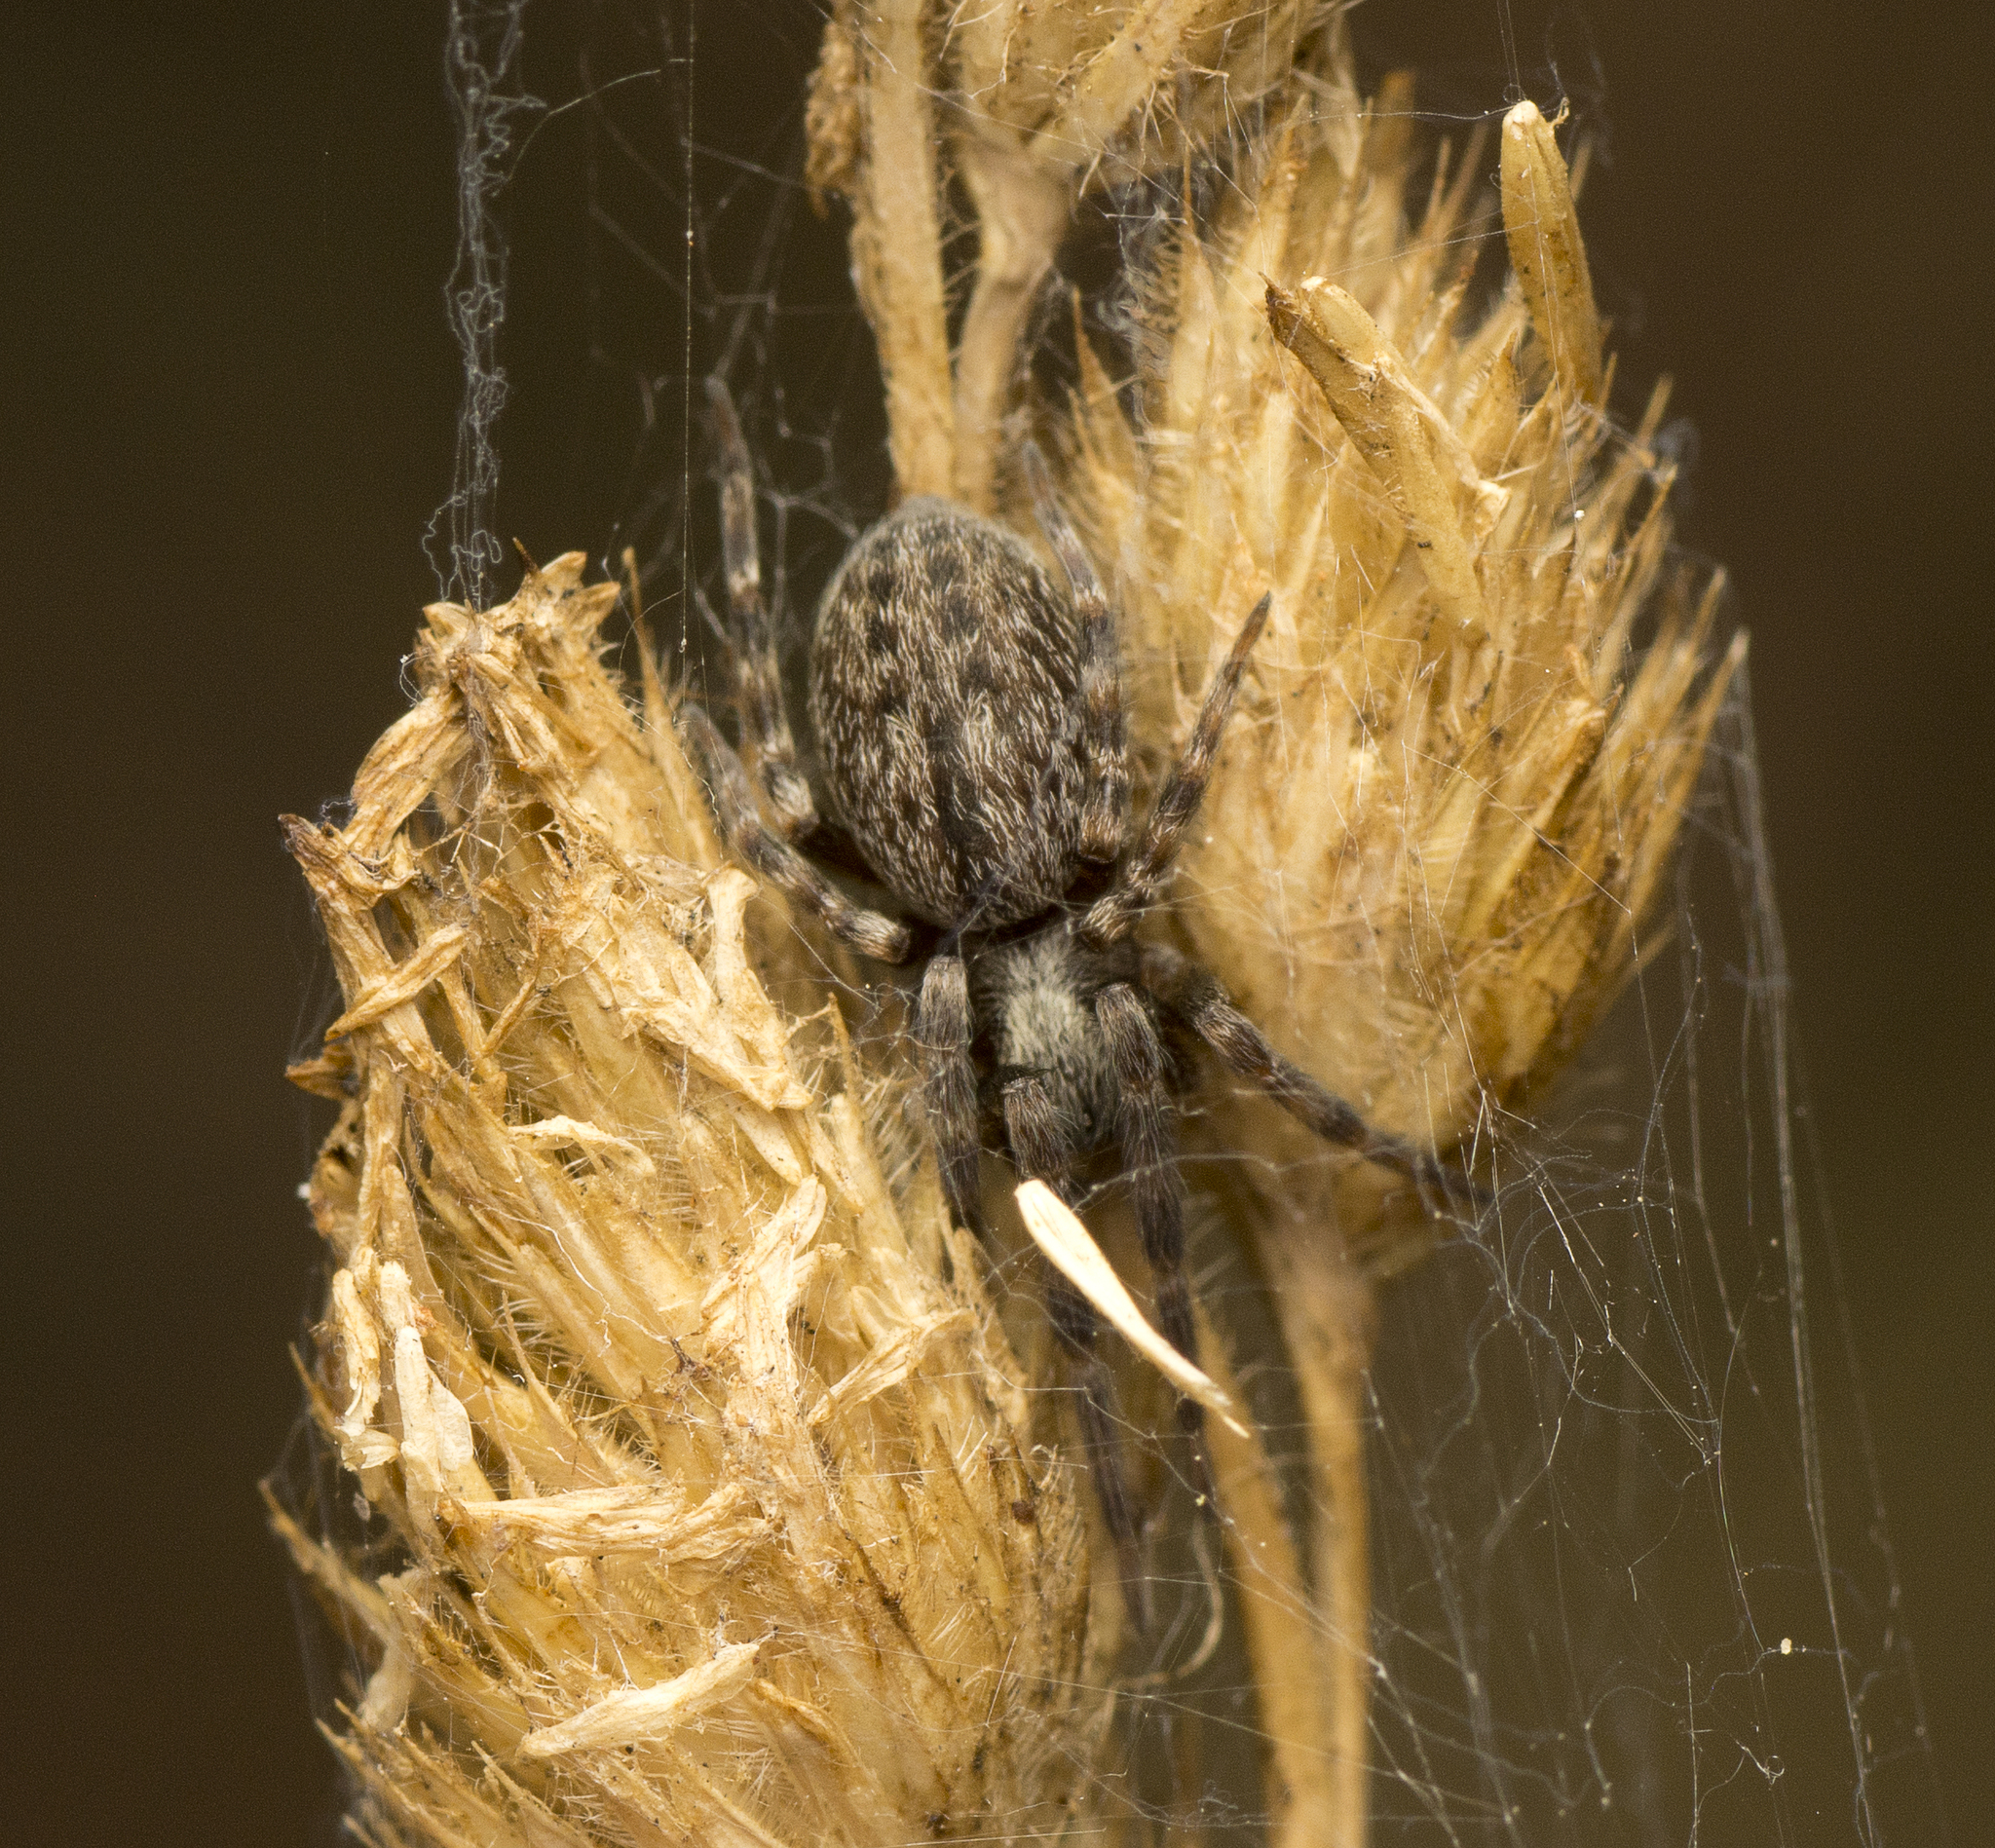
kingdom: Animalia
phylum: Arthropoda
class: Arachnida
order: Araneae
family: Desidae
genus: Badumna
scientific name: Badumna longinqua
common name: Gray house spider
